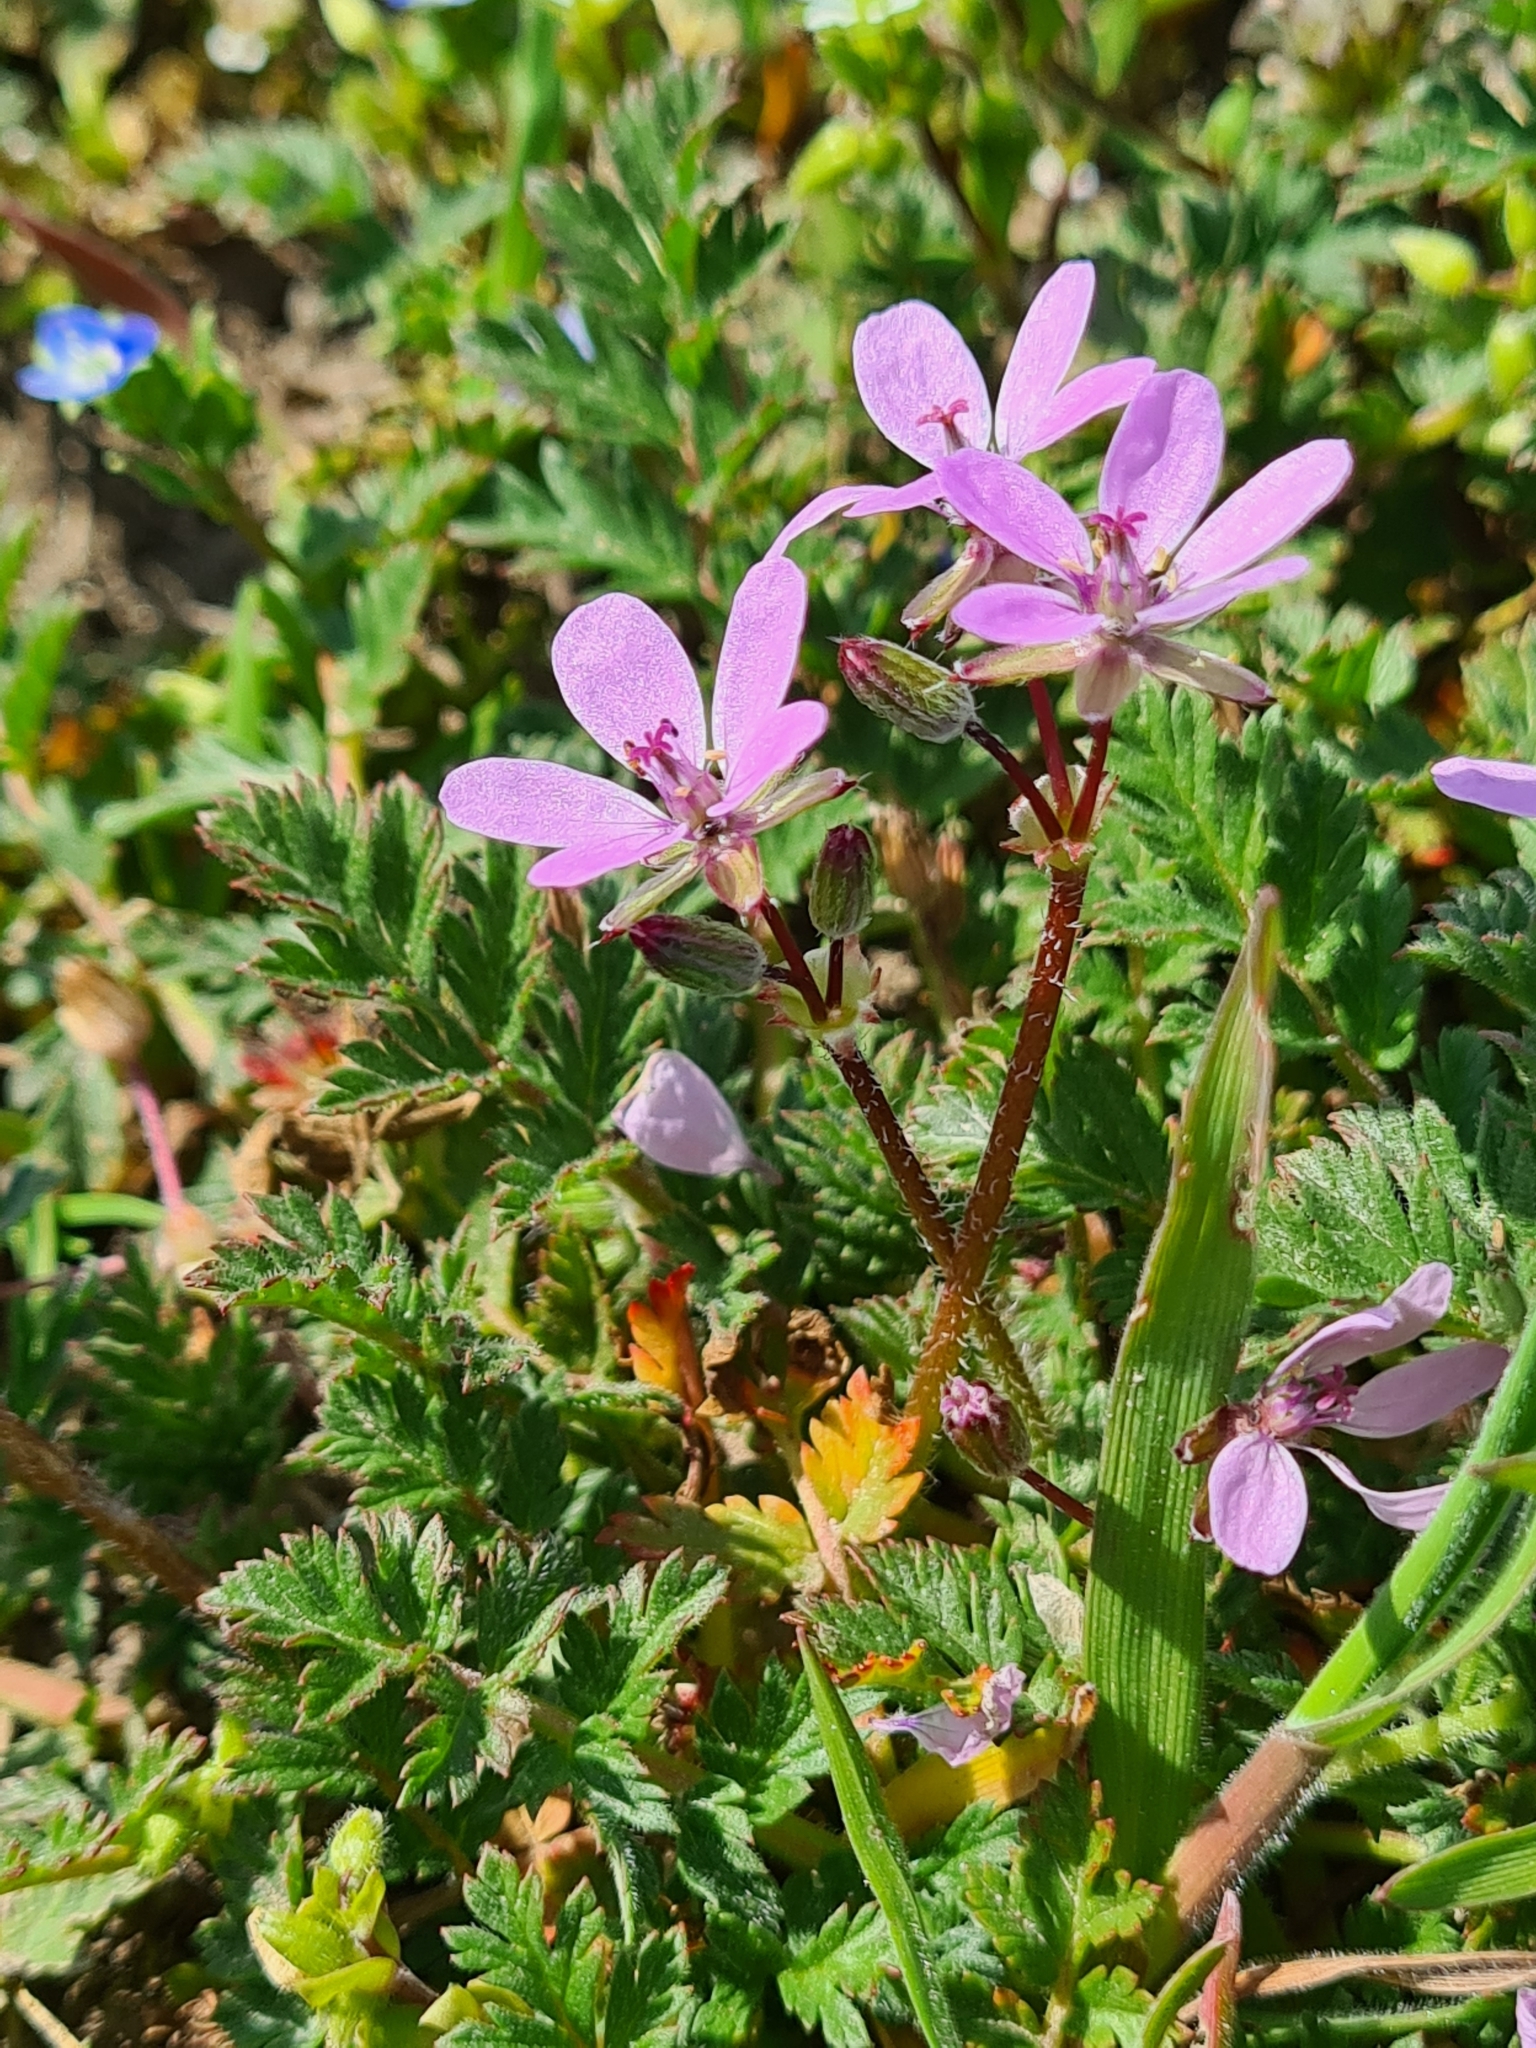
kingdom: Plantae
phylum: Tracheophyta
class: Magnoliopsida
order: Geraniales
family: Geraniaceae
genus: Erodium
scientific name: Erodium cicutarium
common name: Common stork's-bill
